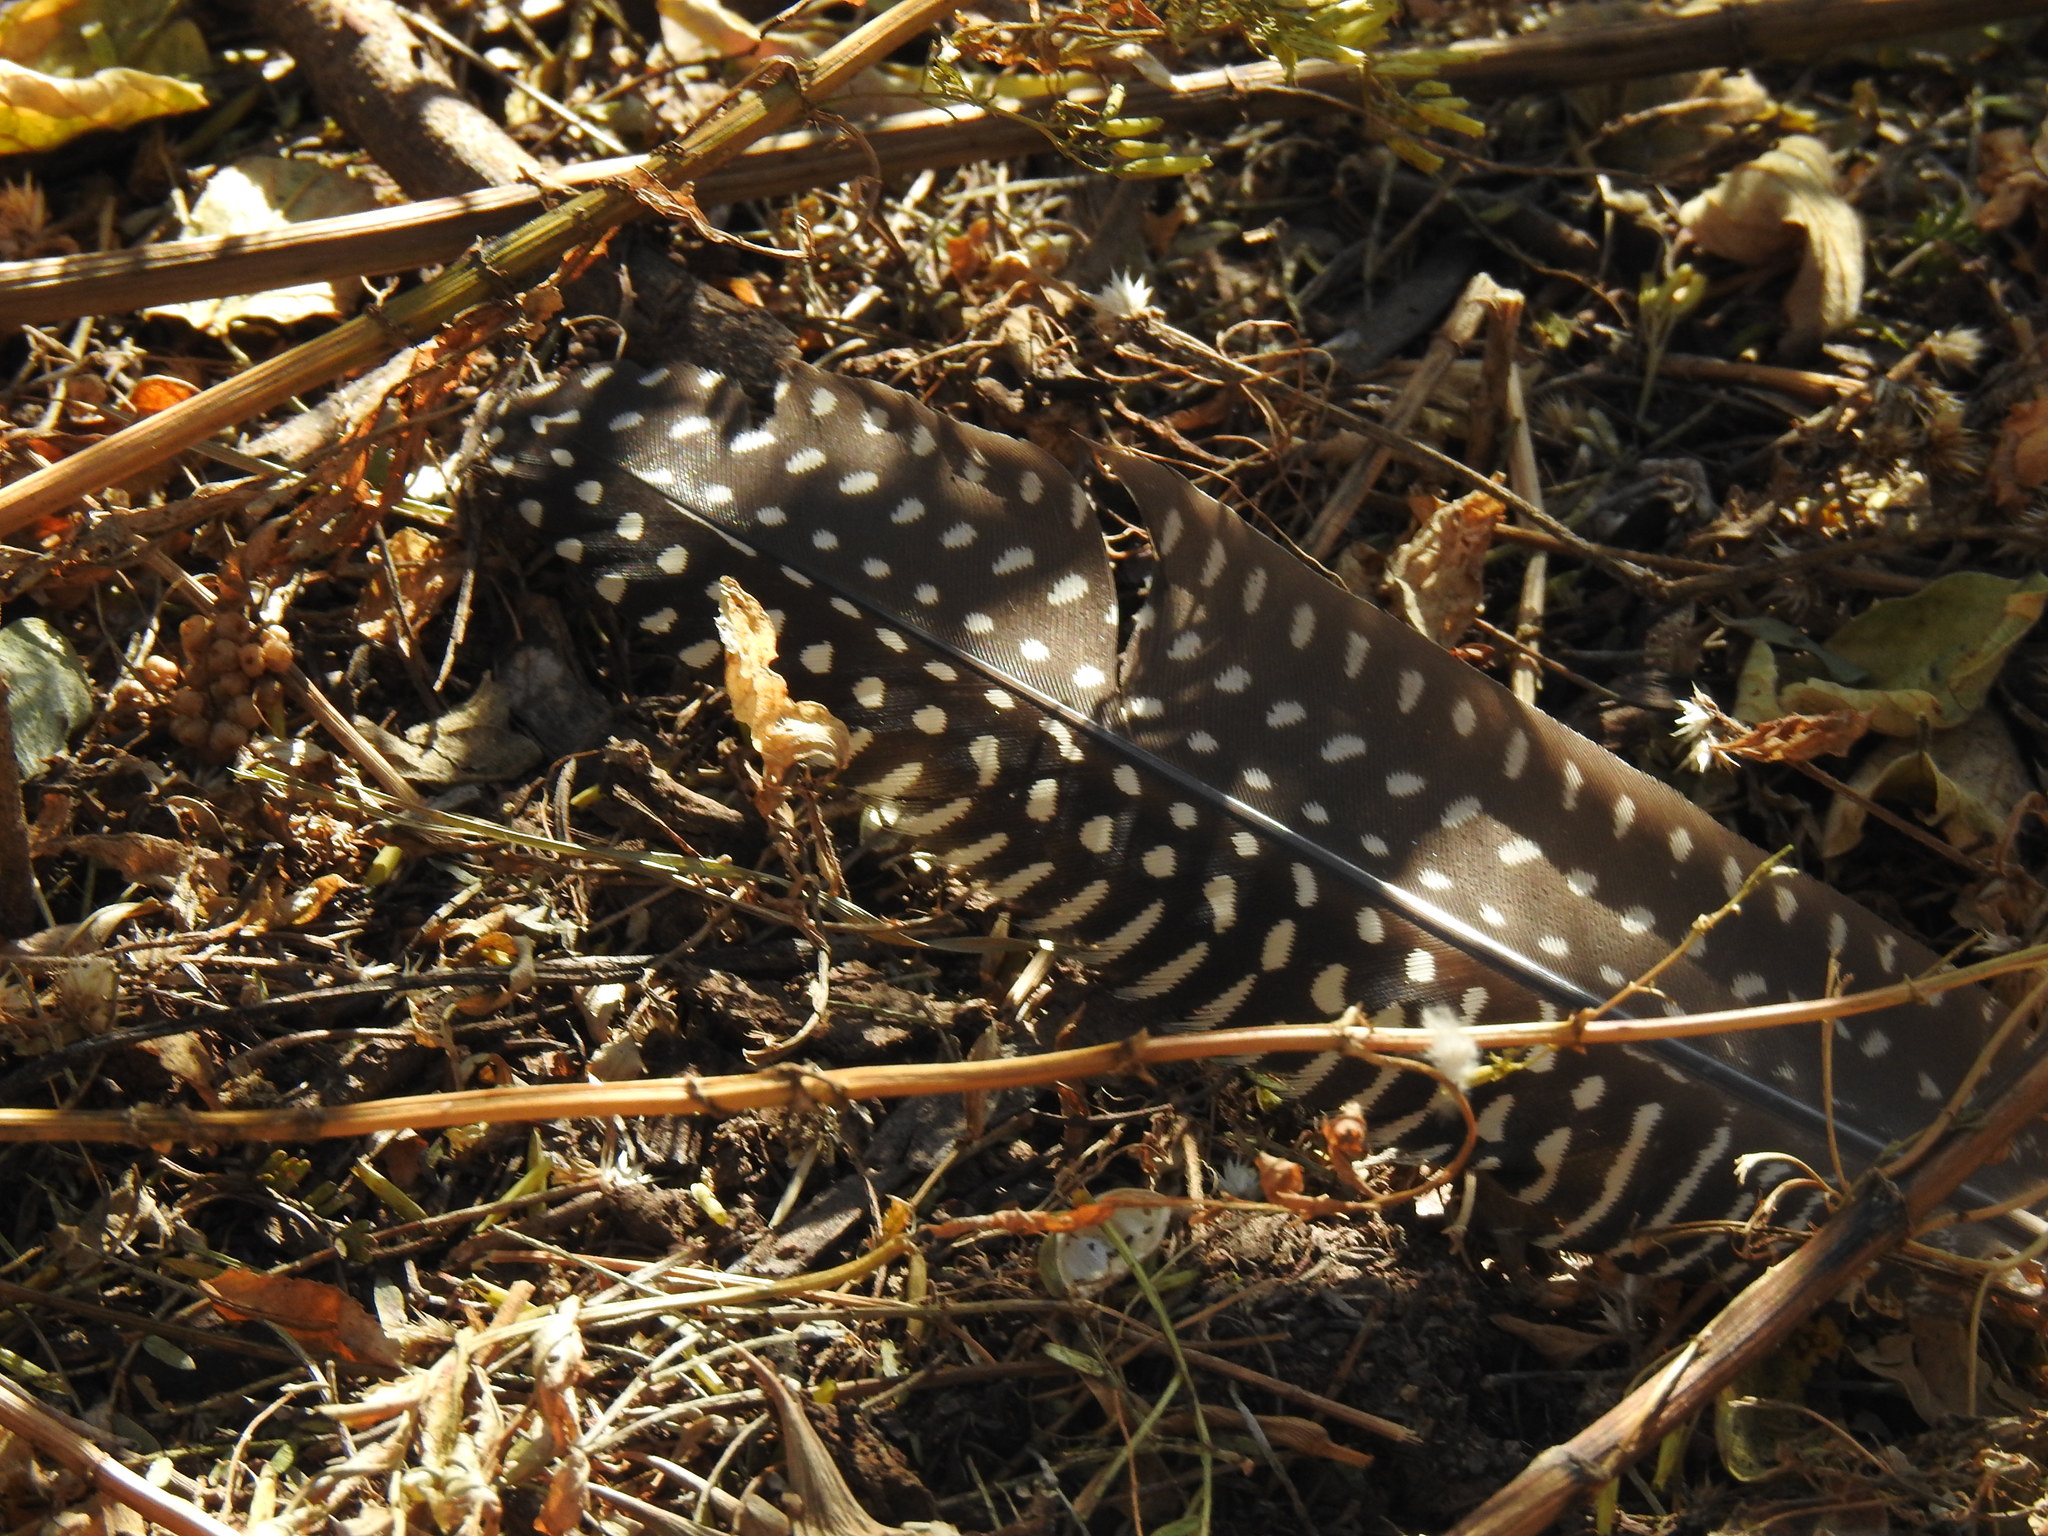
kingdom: Animalia
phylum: Chordata
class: Aves
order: Galliformes
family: Numididae
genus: Numida
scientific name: Numida meleagris
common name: Helmeted guineafowl
